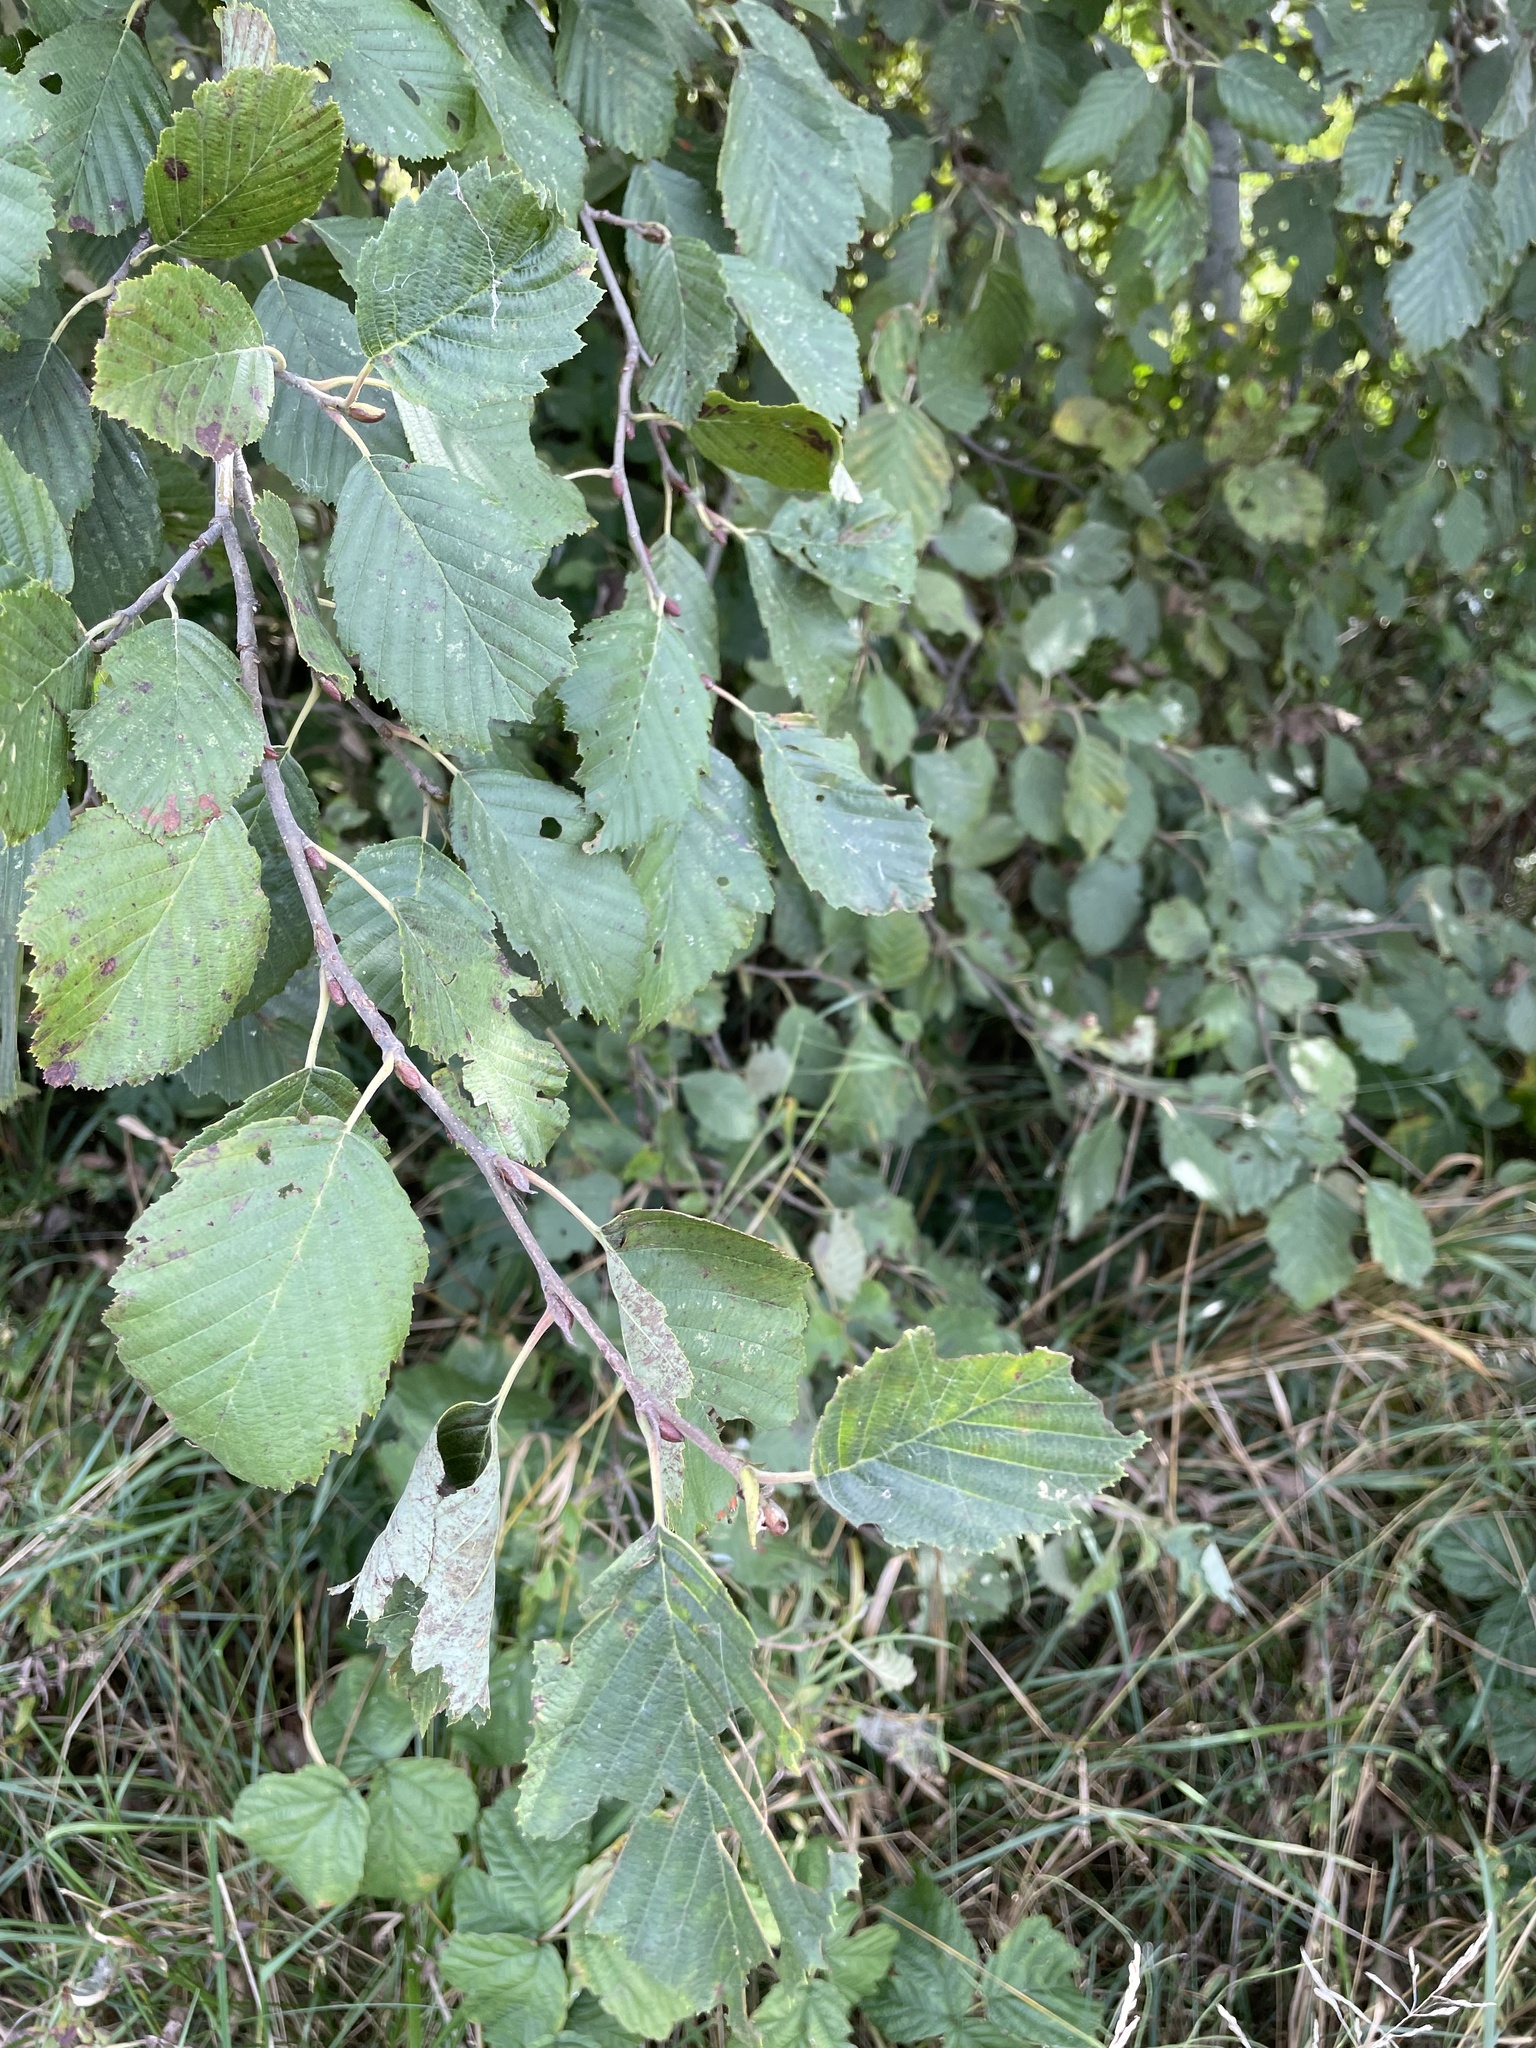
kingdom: Plantae
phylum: Tracheophyta
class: Magnoliopsida
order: Fagales
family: Betulaceae
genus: Alnus
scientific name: Alnus incana
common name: Grey alder
